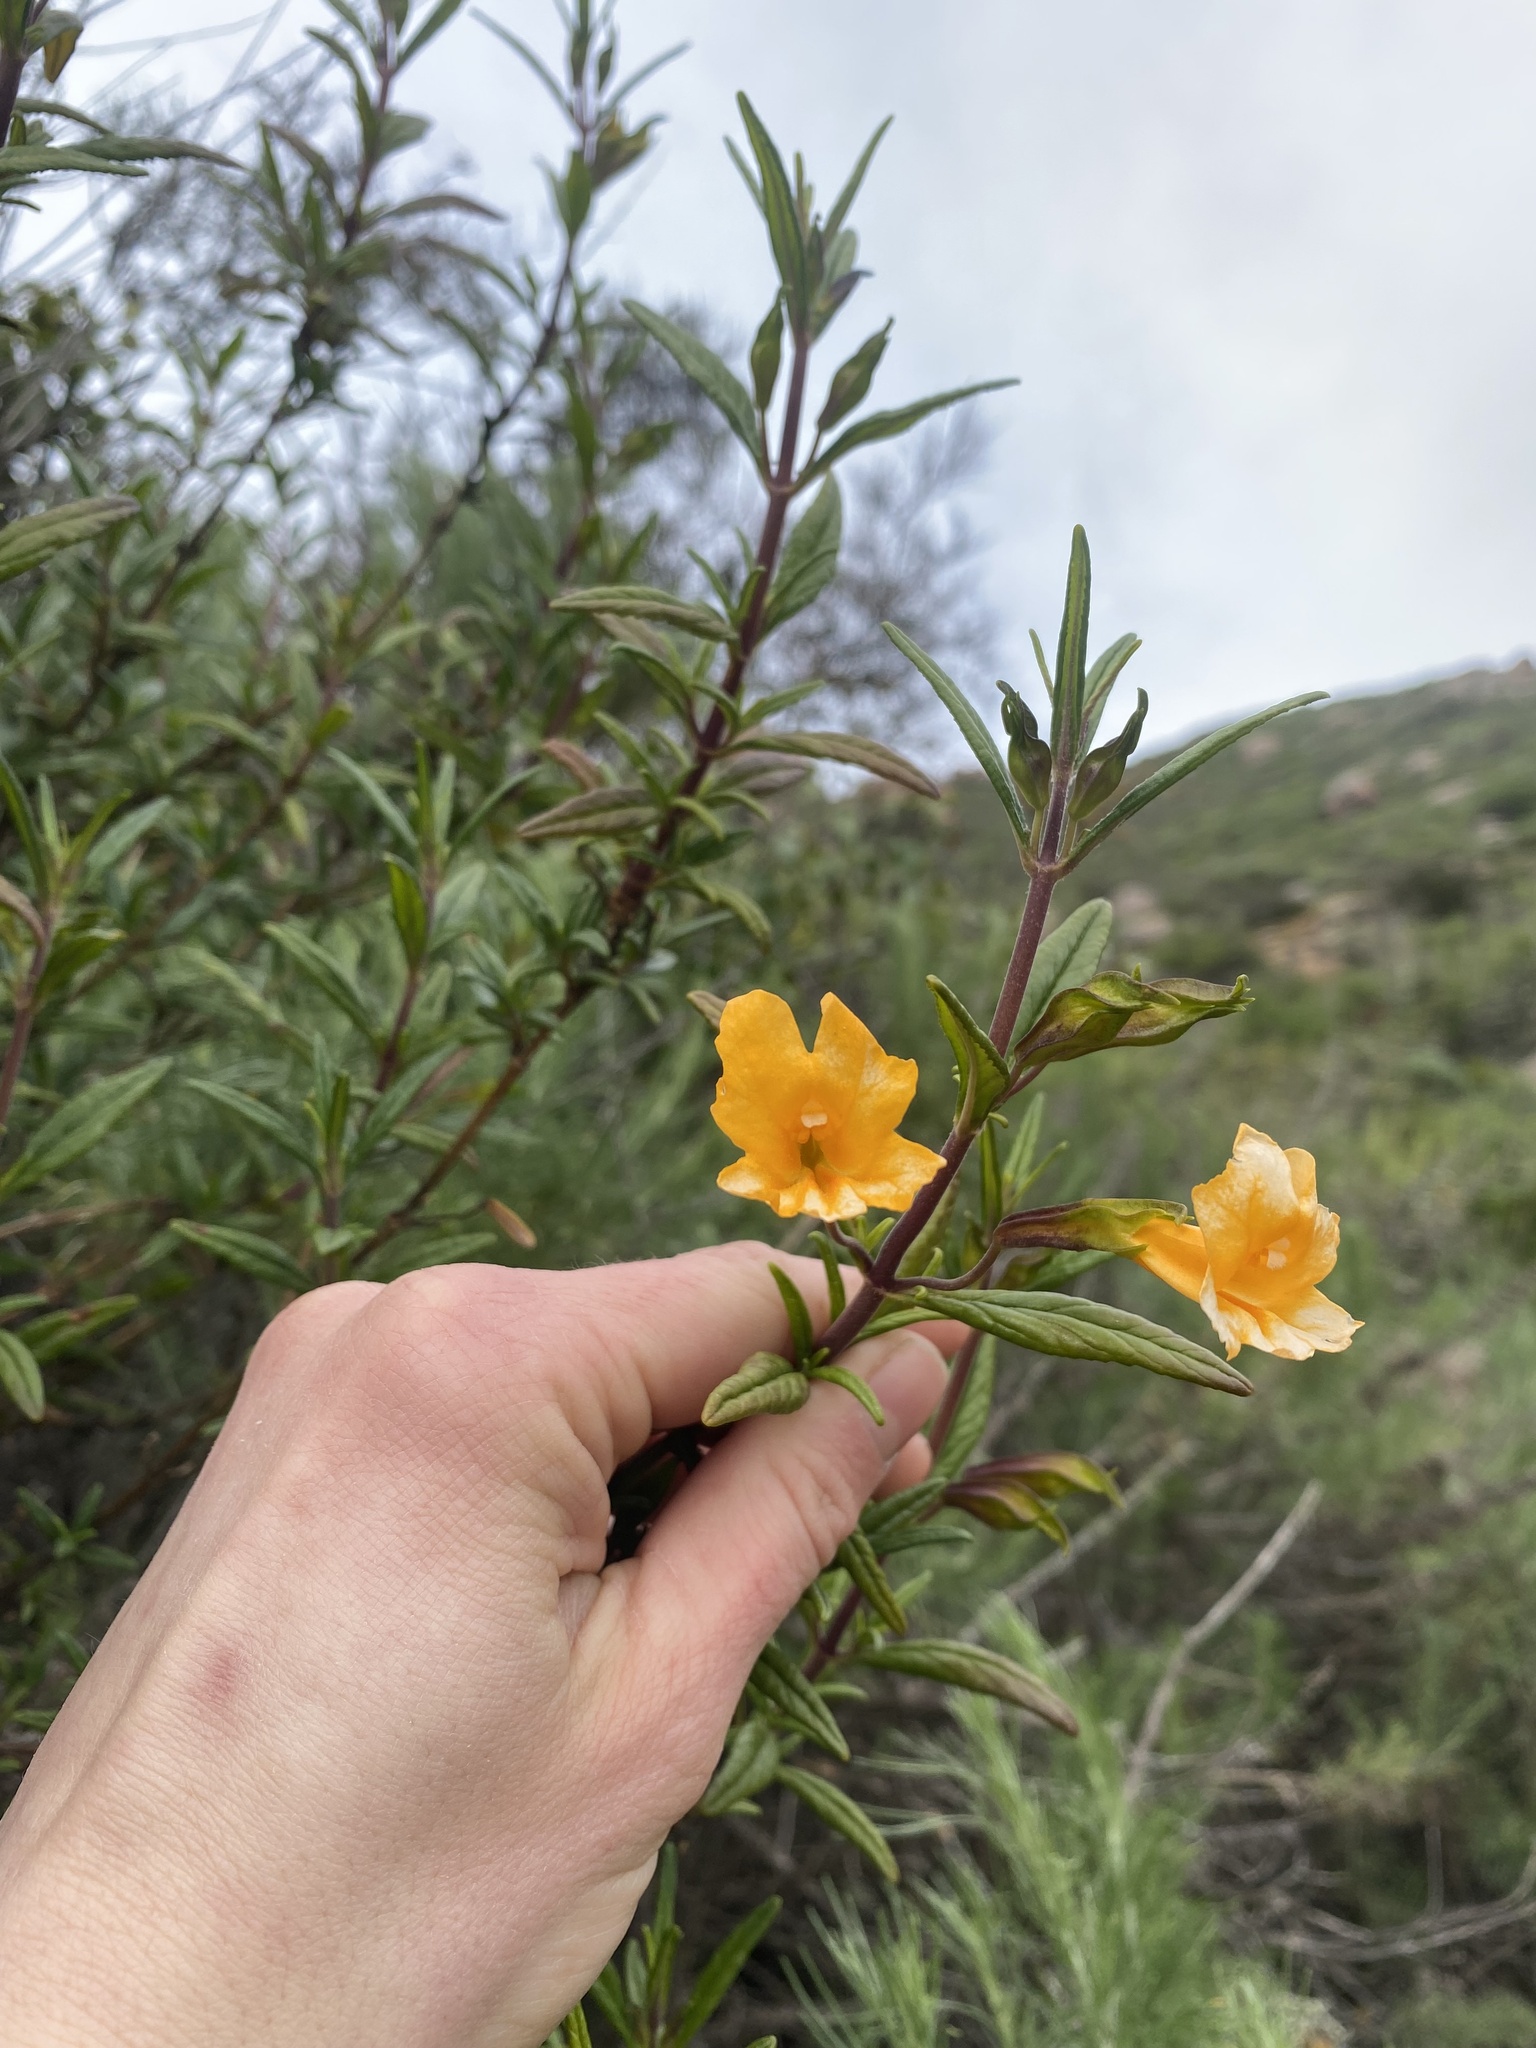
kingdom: Plantae
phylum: Tracheophyta
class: Magnoliopsida
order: Lamiales
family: Phrymaceae
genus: Diplacus
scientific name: Diplacus aurantiacus
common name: Bush monkey-flower
